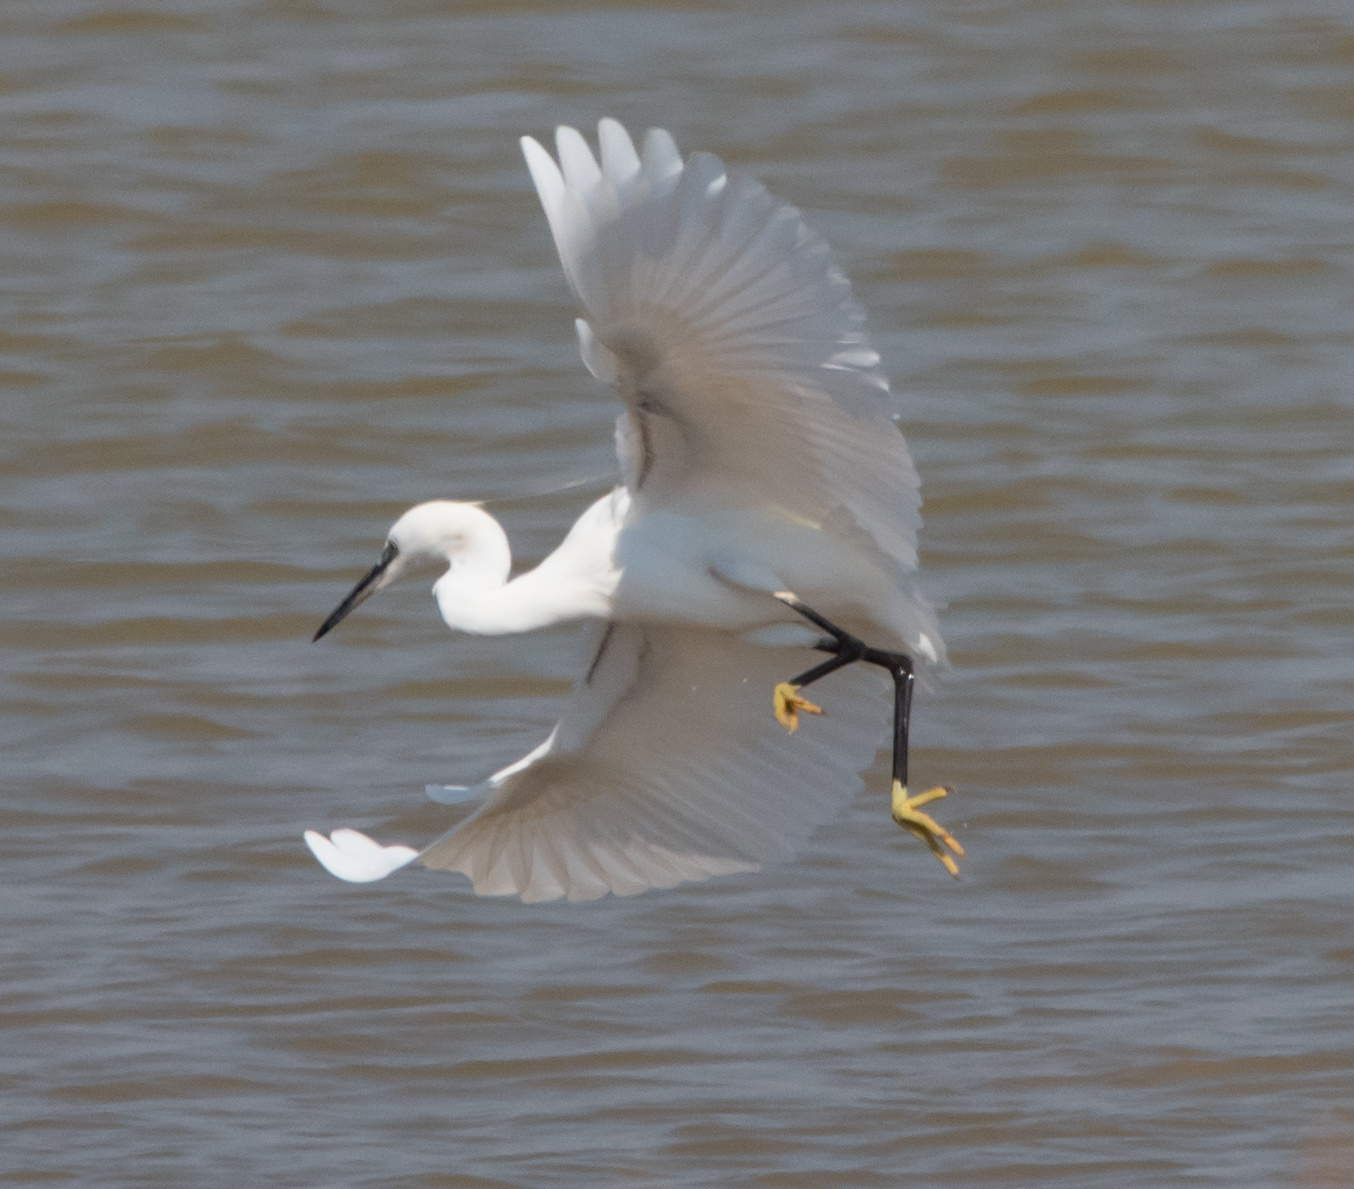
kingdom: Animalia
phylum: Chordata
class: Aves
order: Pelecaniformes
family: Ardeidae
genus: Egretta
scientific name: Egretta garzetta
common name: Little egret
